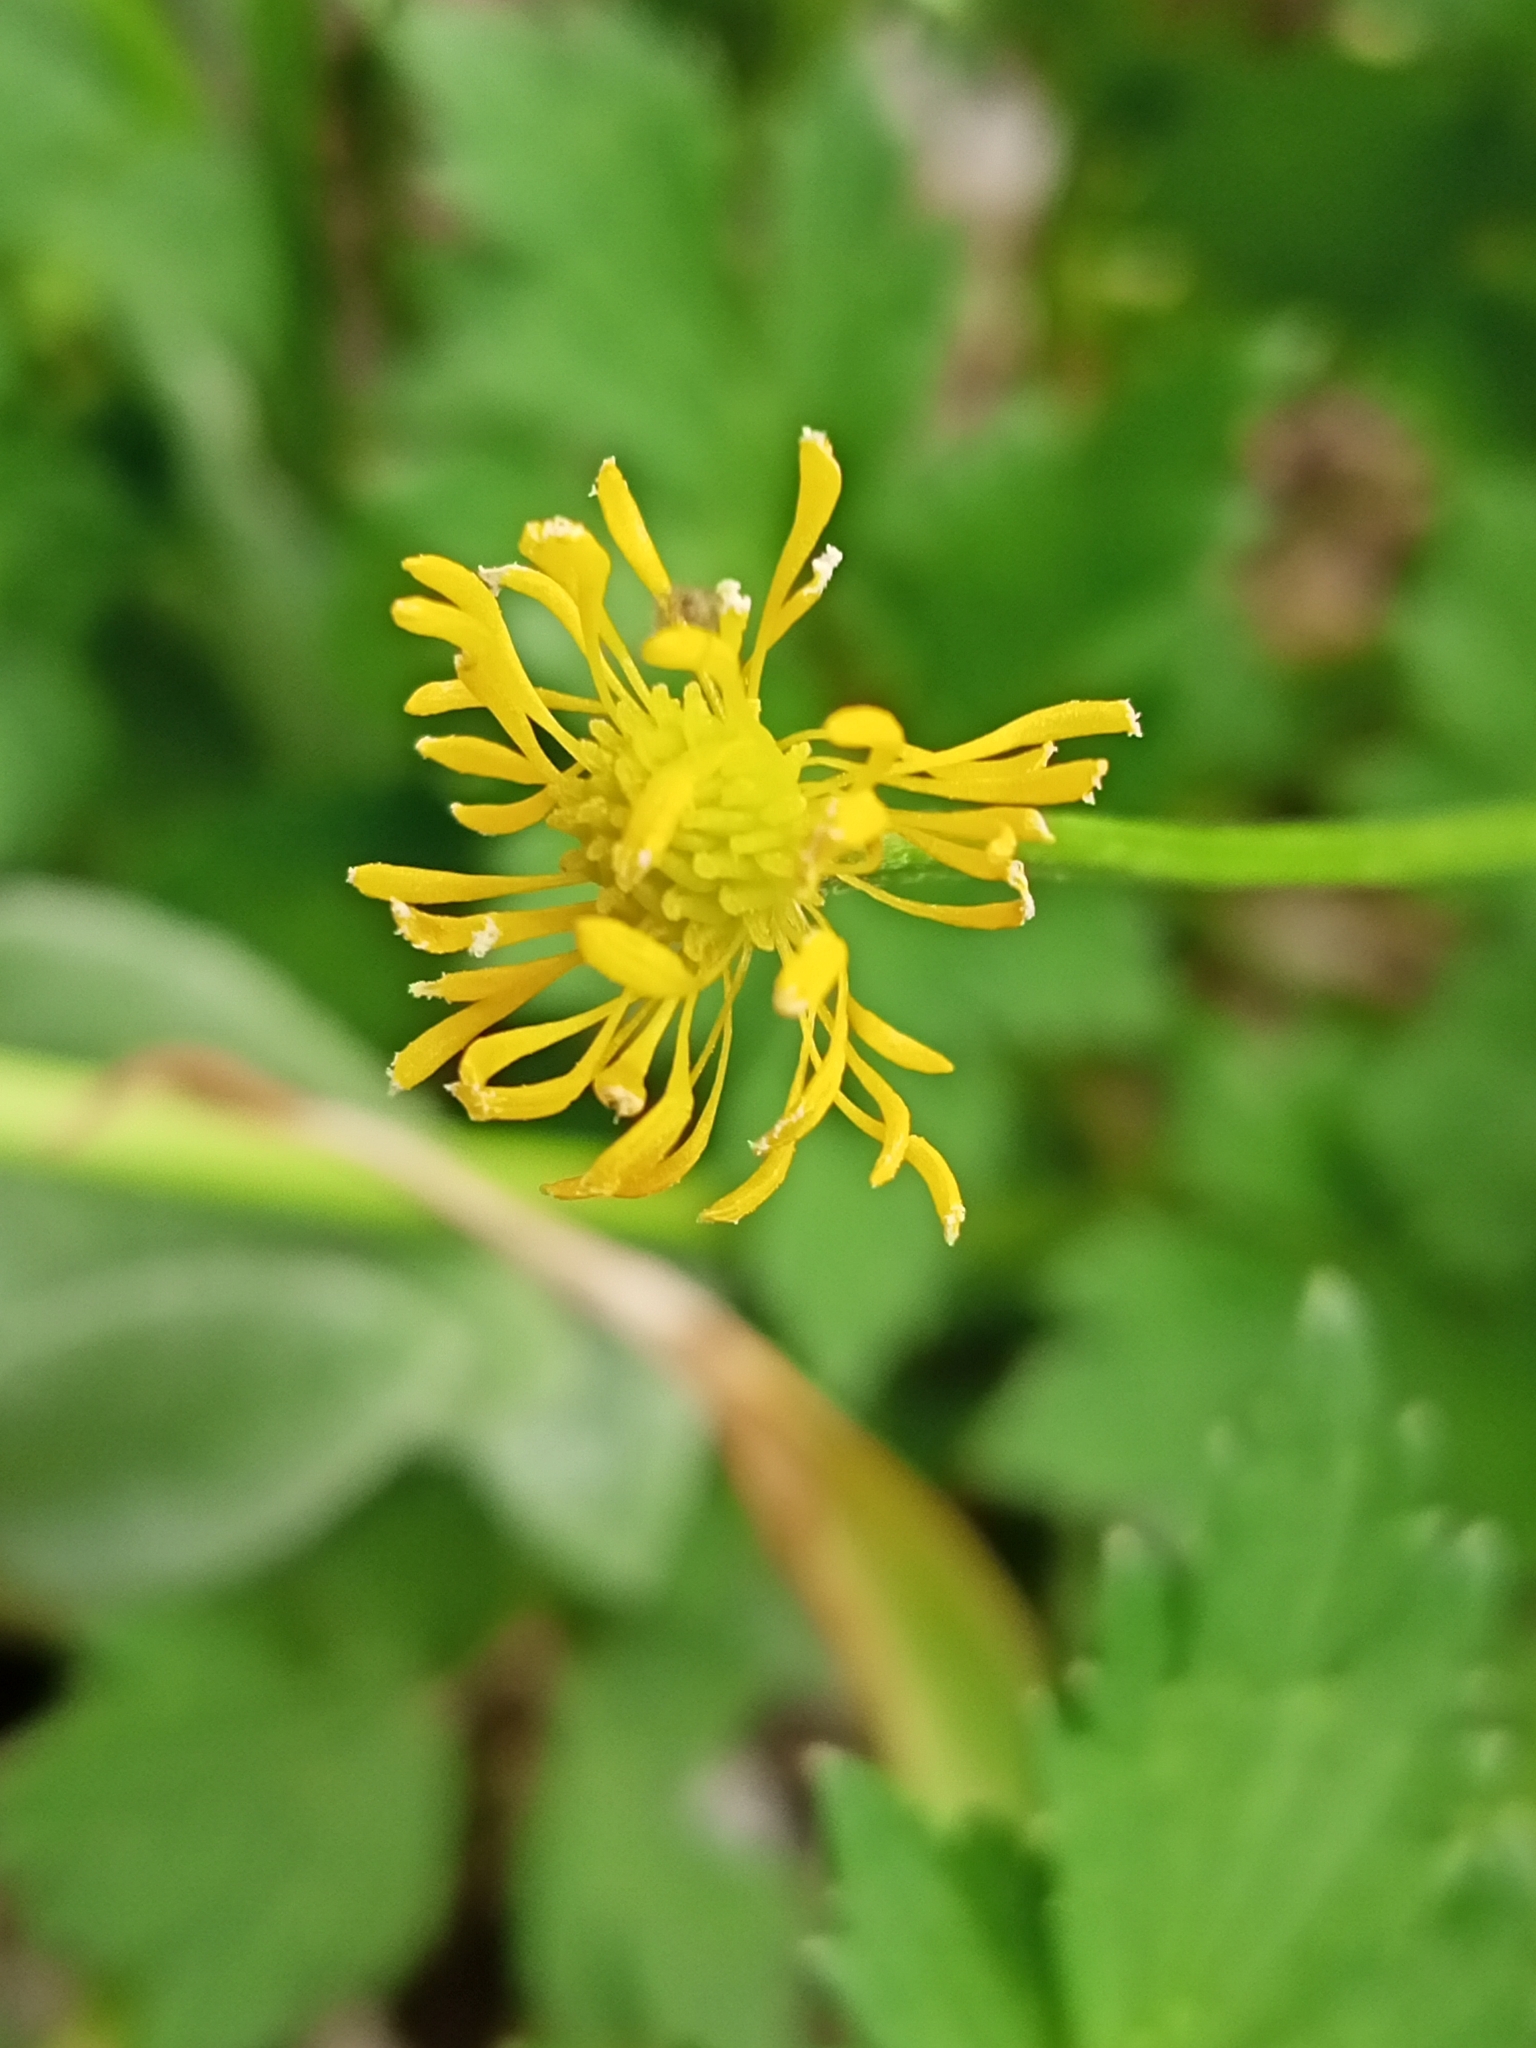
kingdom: Plantae
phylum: Tracheophyta
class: Magnoliopsida
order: Ranunculales
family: Ranunculaceae
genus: Ranunculus
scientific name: Ranunculus repens
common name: Creeping buttercup
